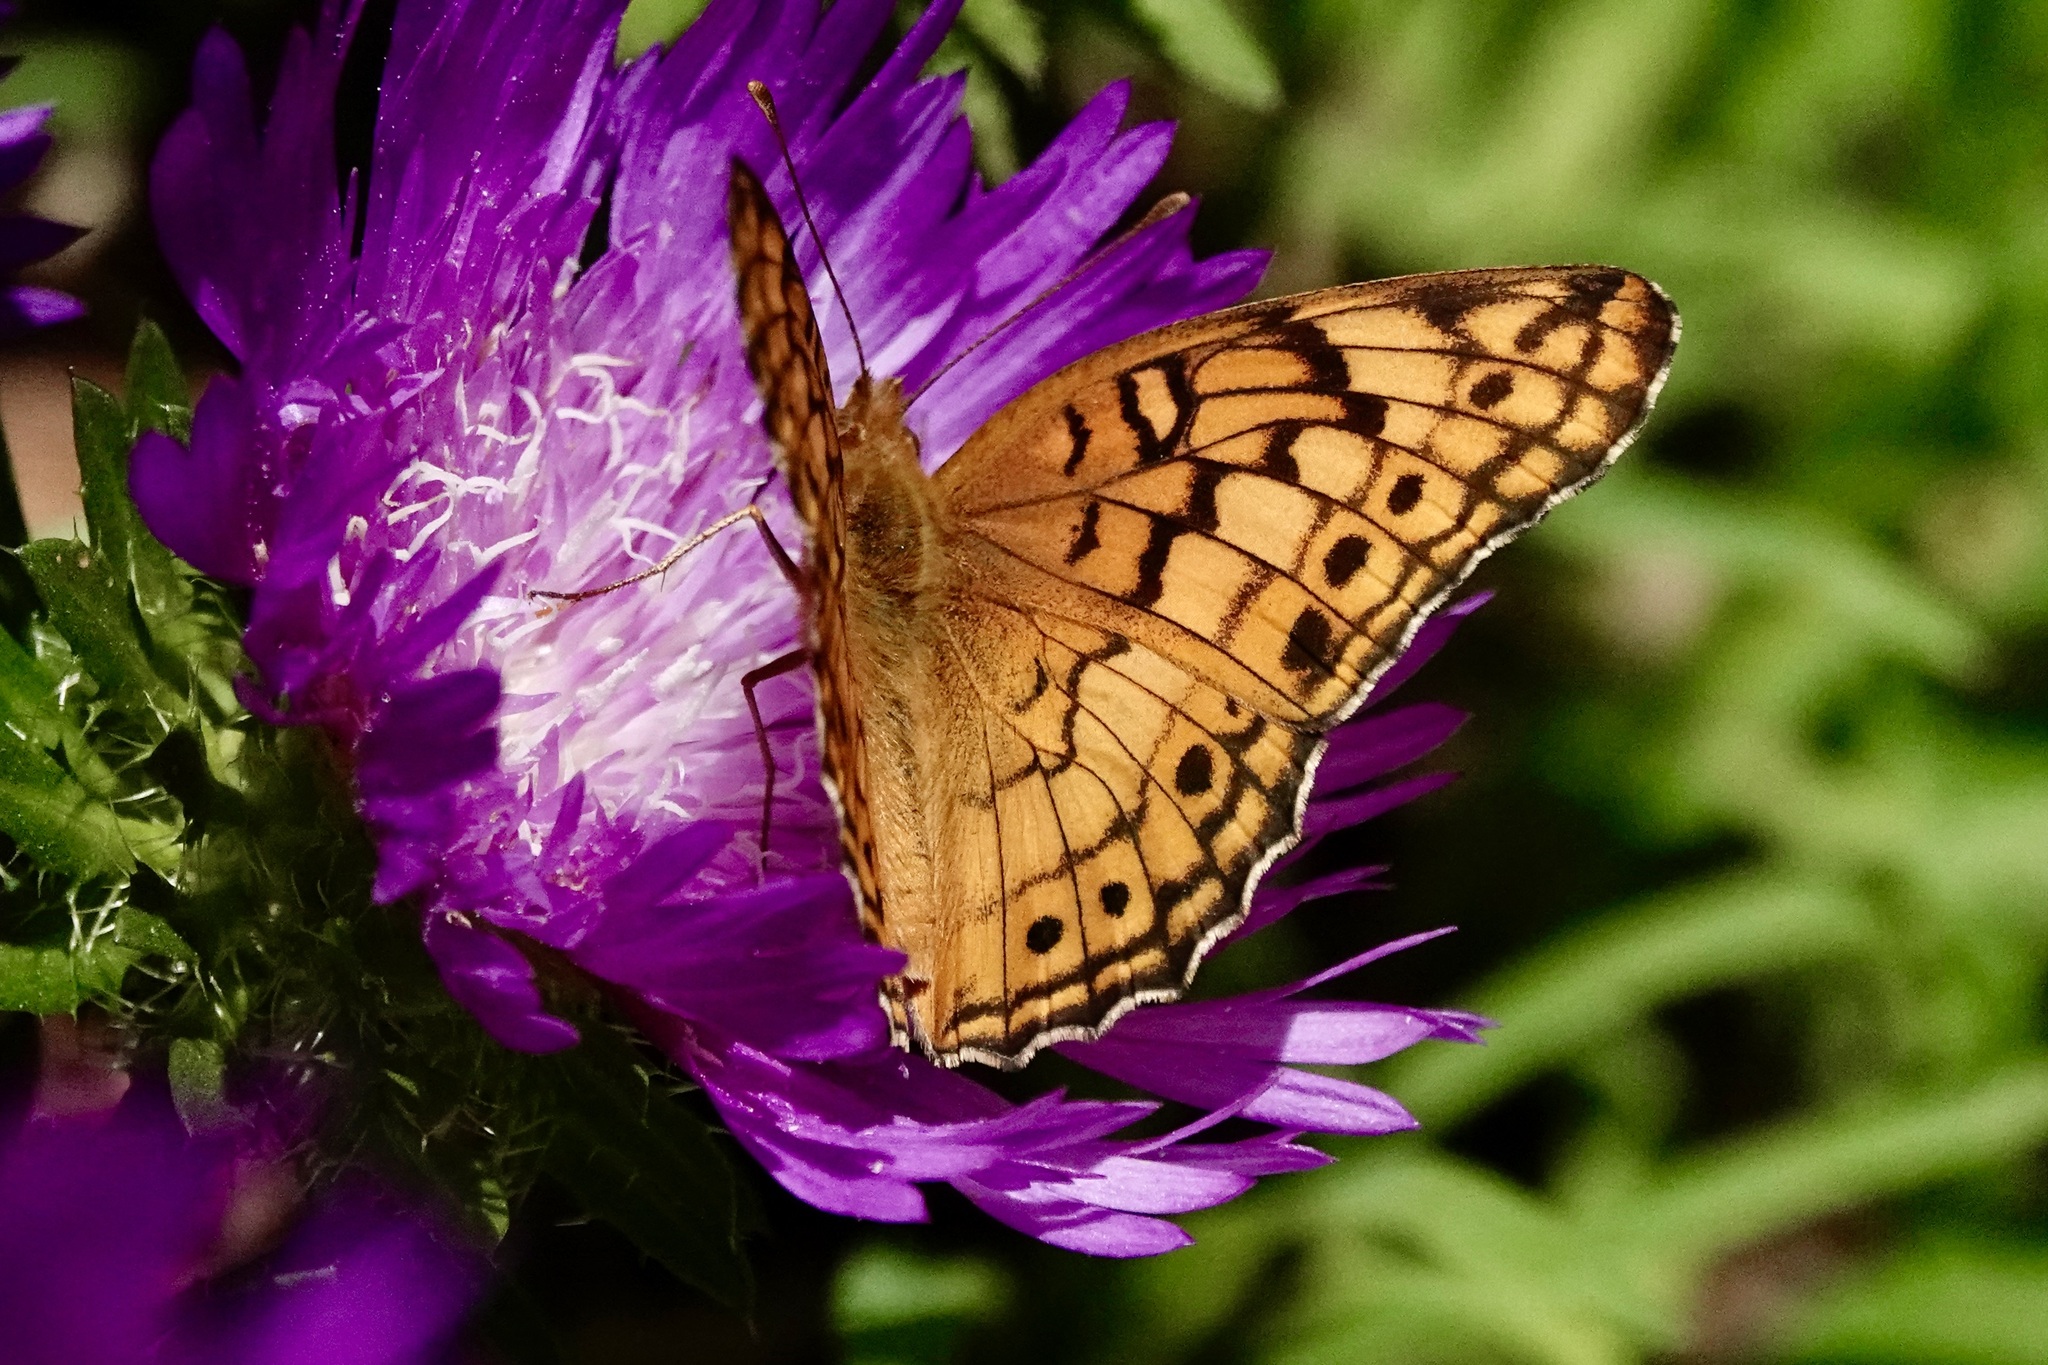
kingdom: Animalia
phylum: Arthropoda
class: Insecta
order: Lepidoptera
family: Nymphalidae
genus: Euptoieta
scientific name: Euptoieta claudia
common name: Variegated fritillary
